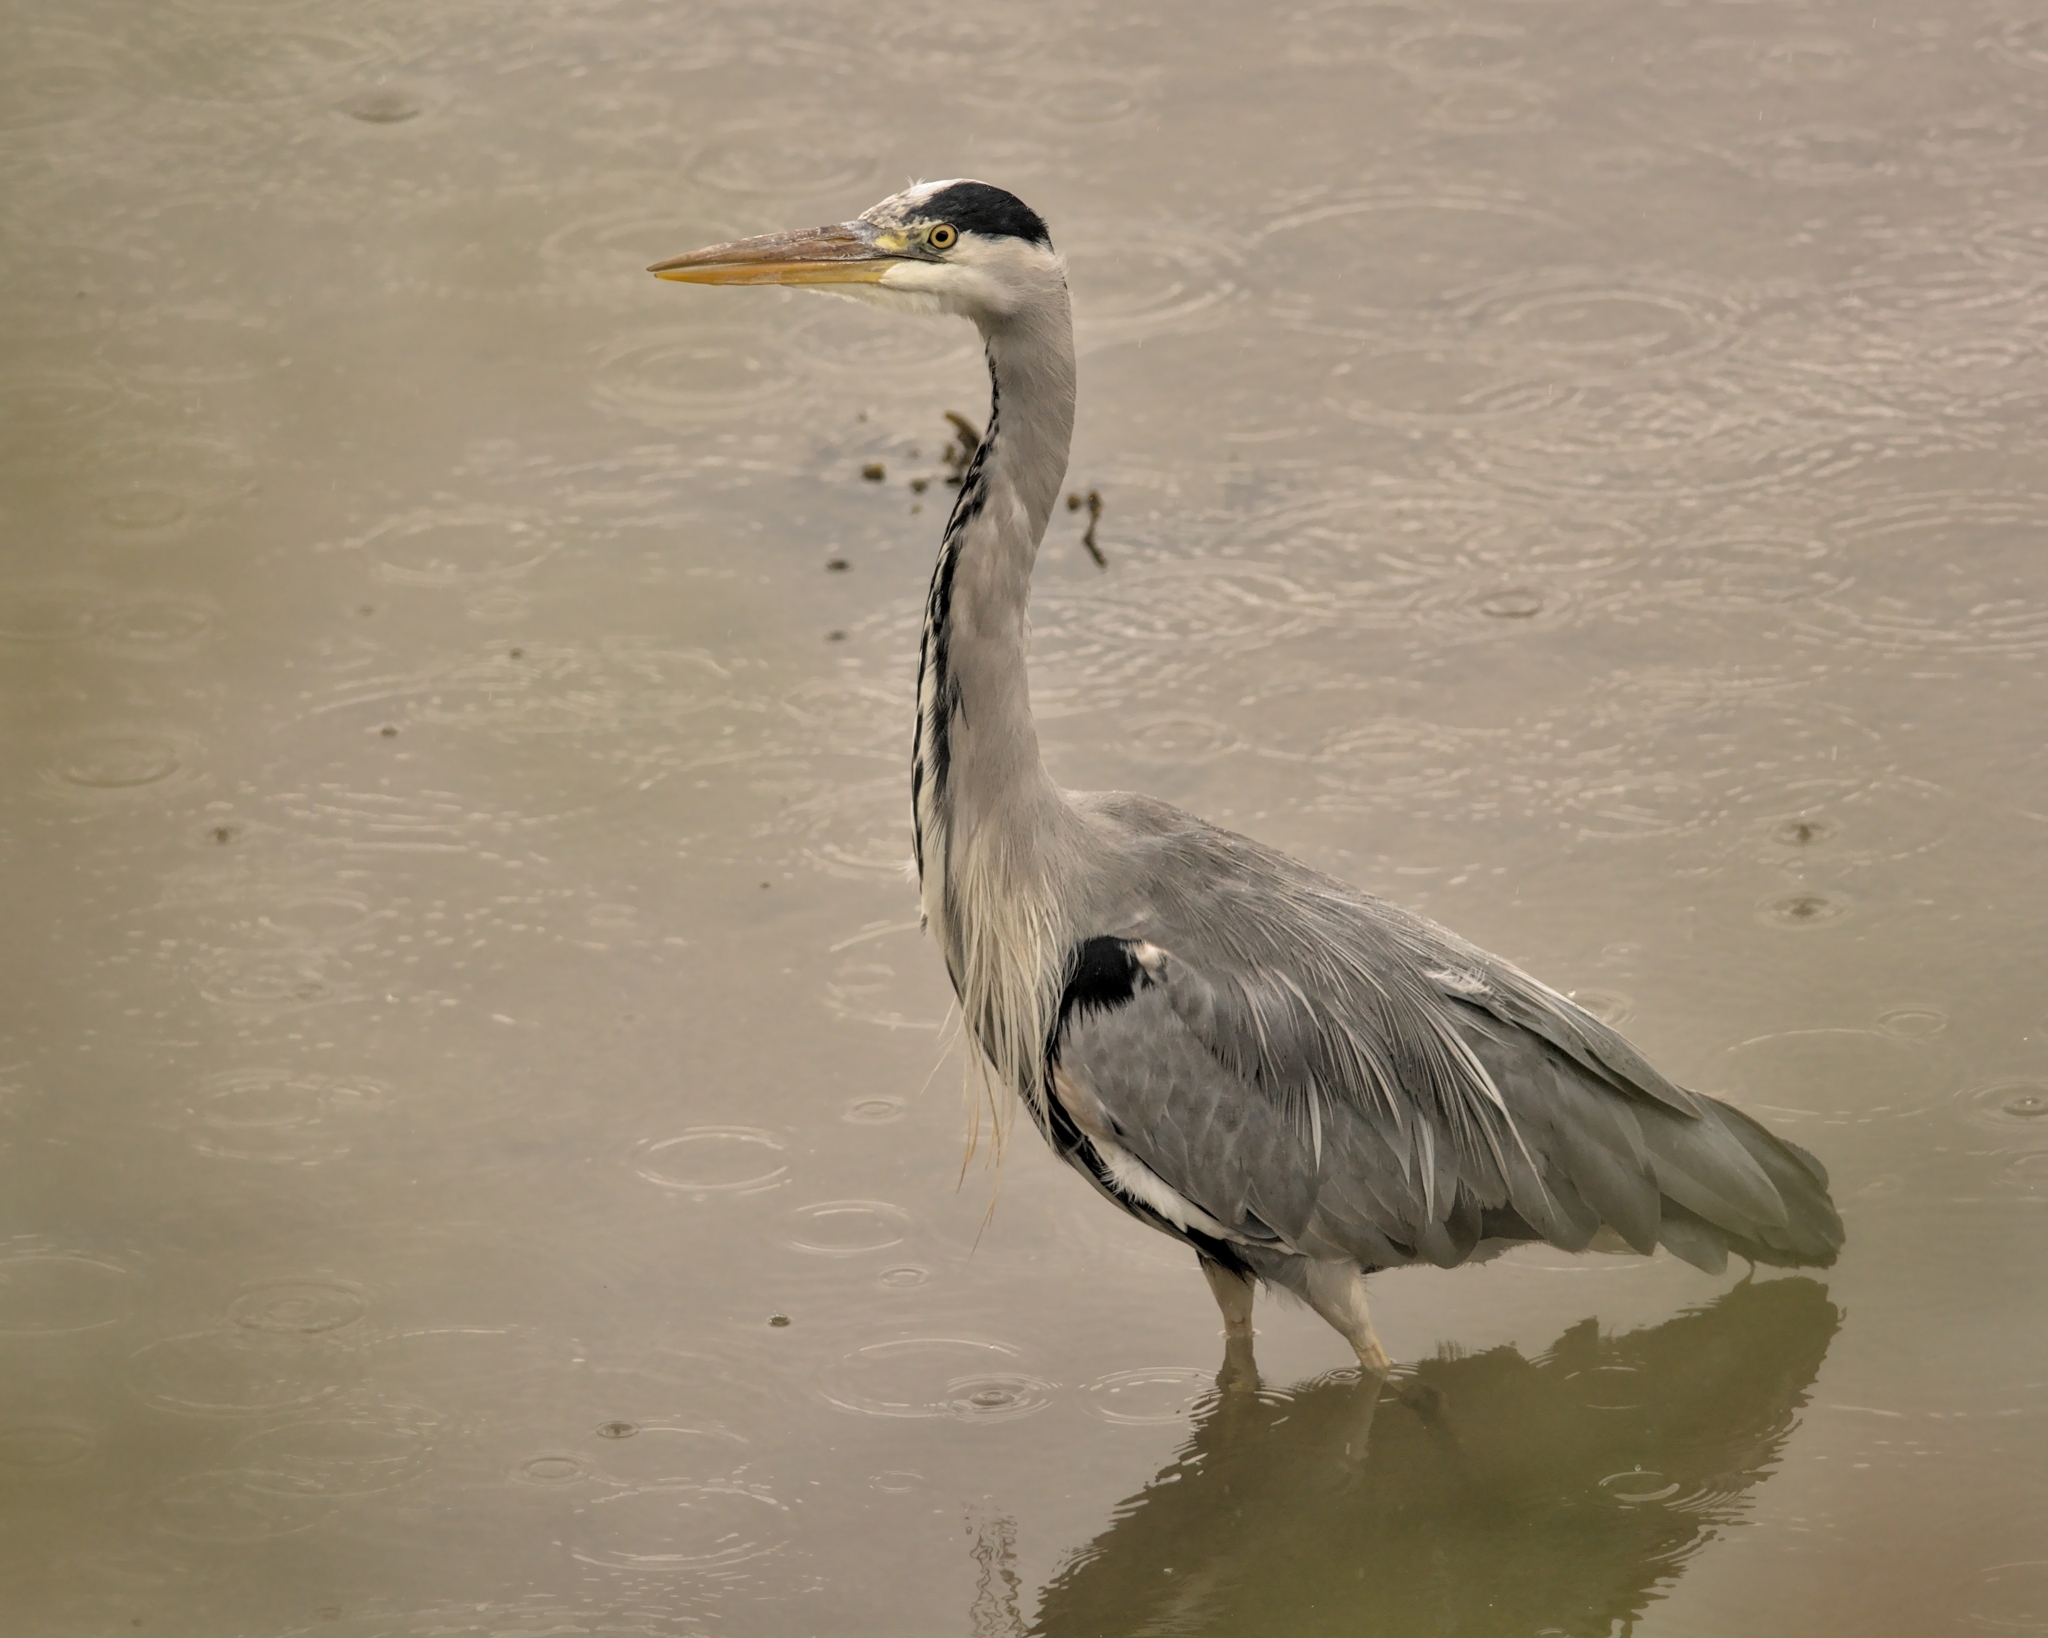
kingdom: Animalia
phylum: Chordata
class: Aves
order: Pelecaniformes
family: Ardeidae
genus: Ardea
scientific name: Ardea cinerea
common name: Grey heron
